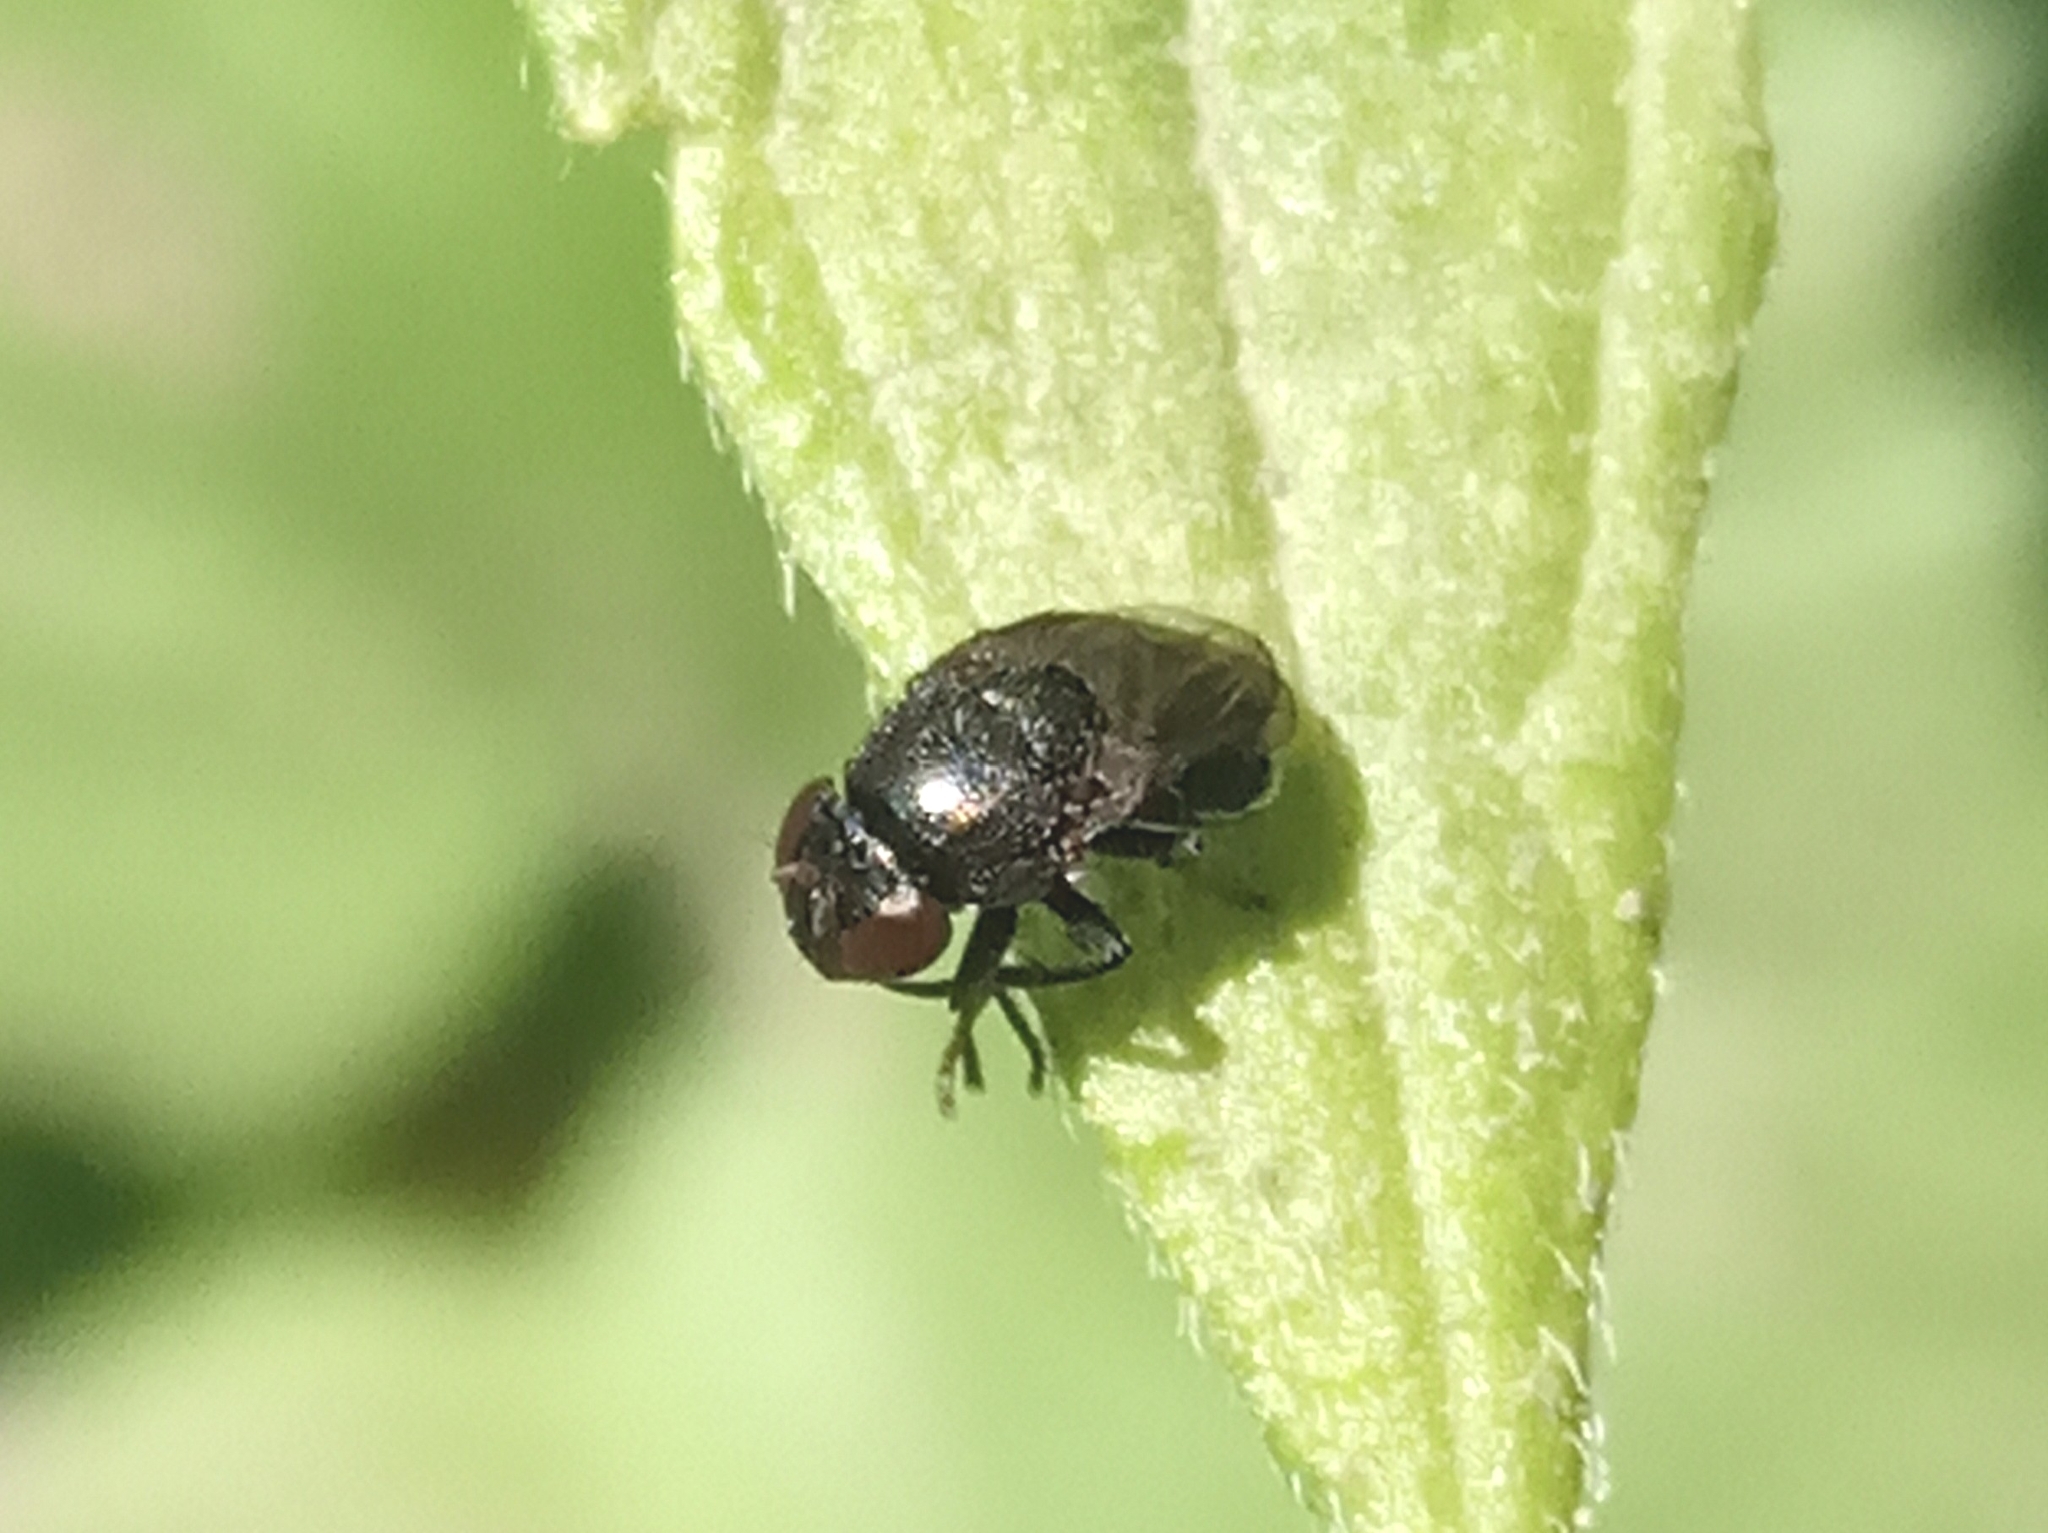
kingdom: Animalia
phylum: Arthropoda
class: Insecta
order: Diptera
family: Ephydridae
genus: Discomyza
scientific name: Discomyza
